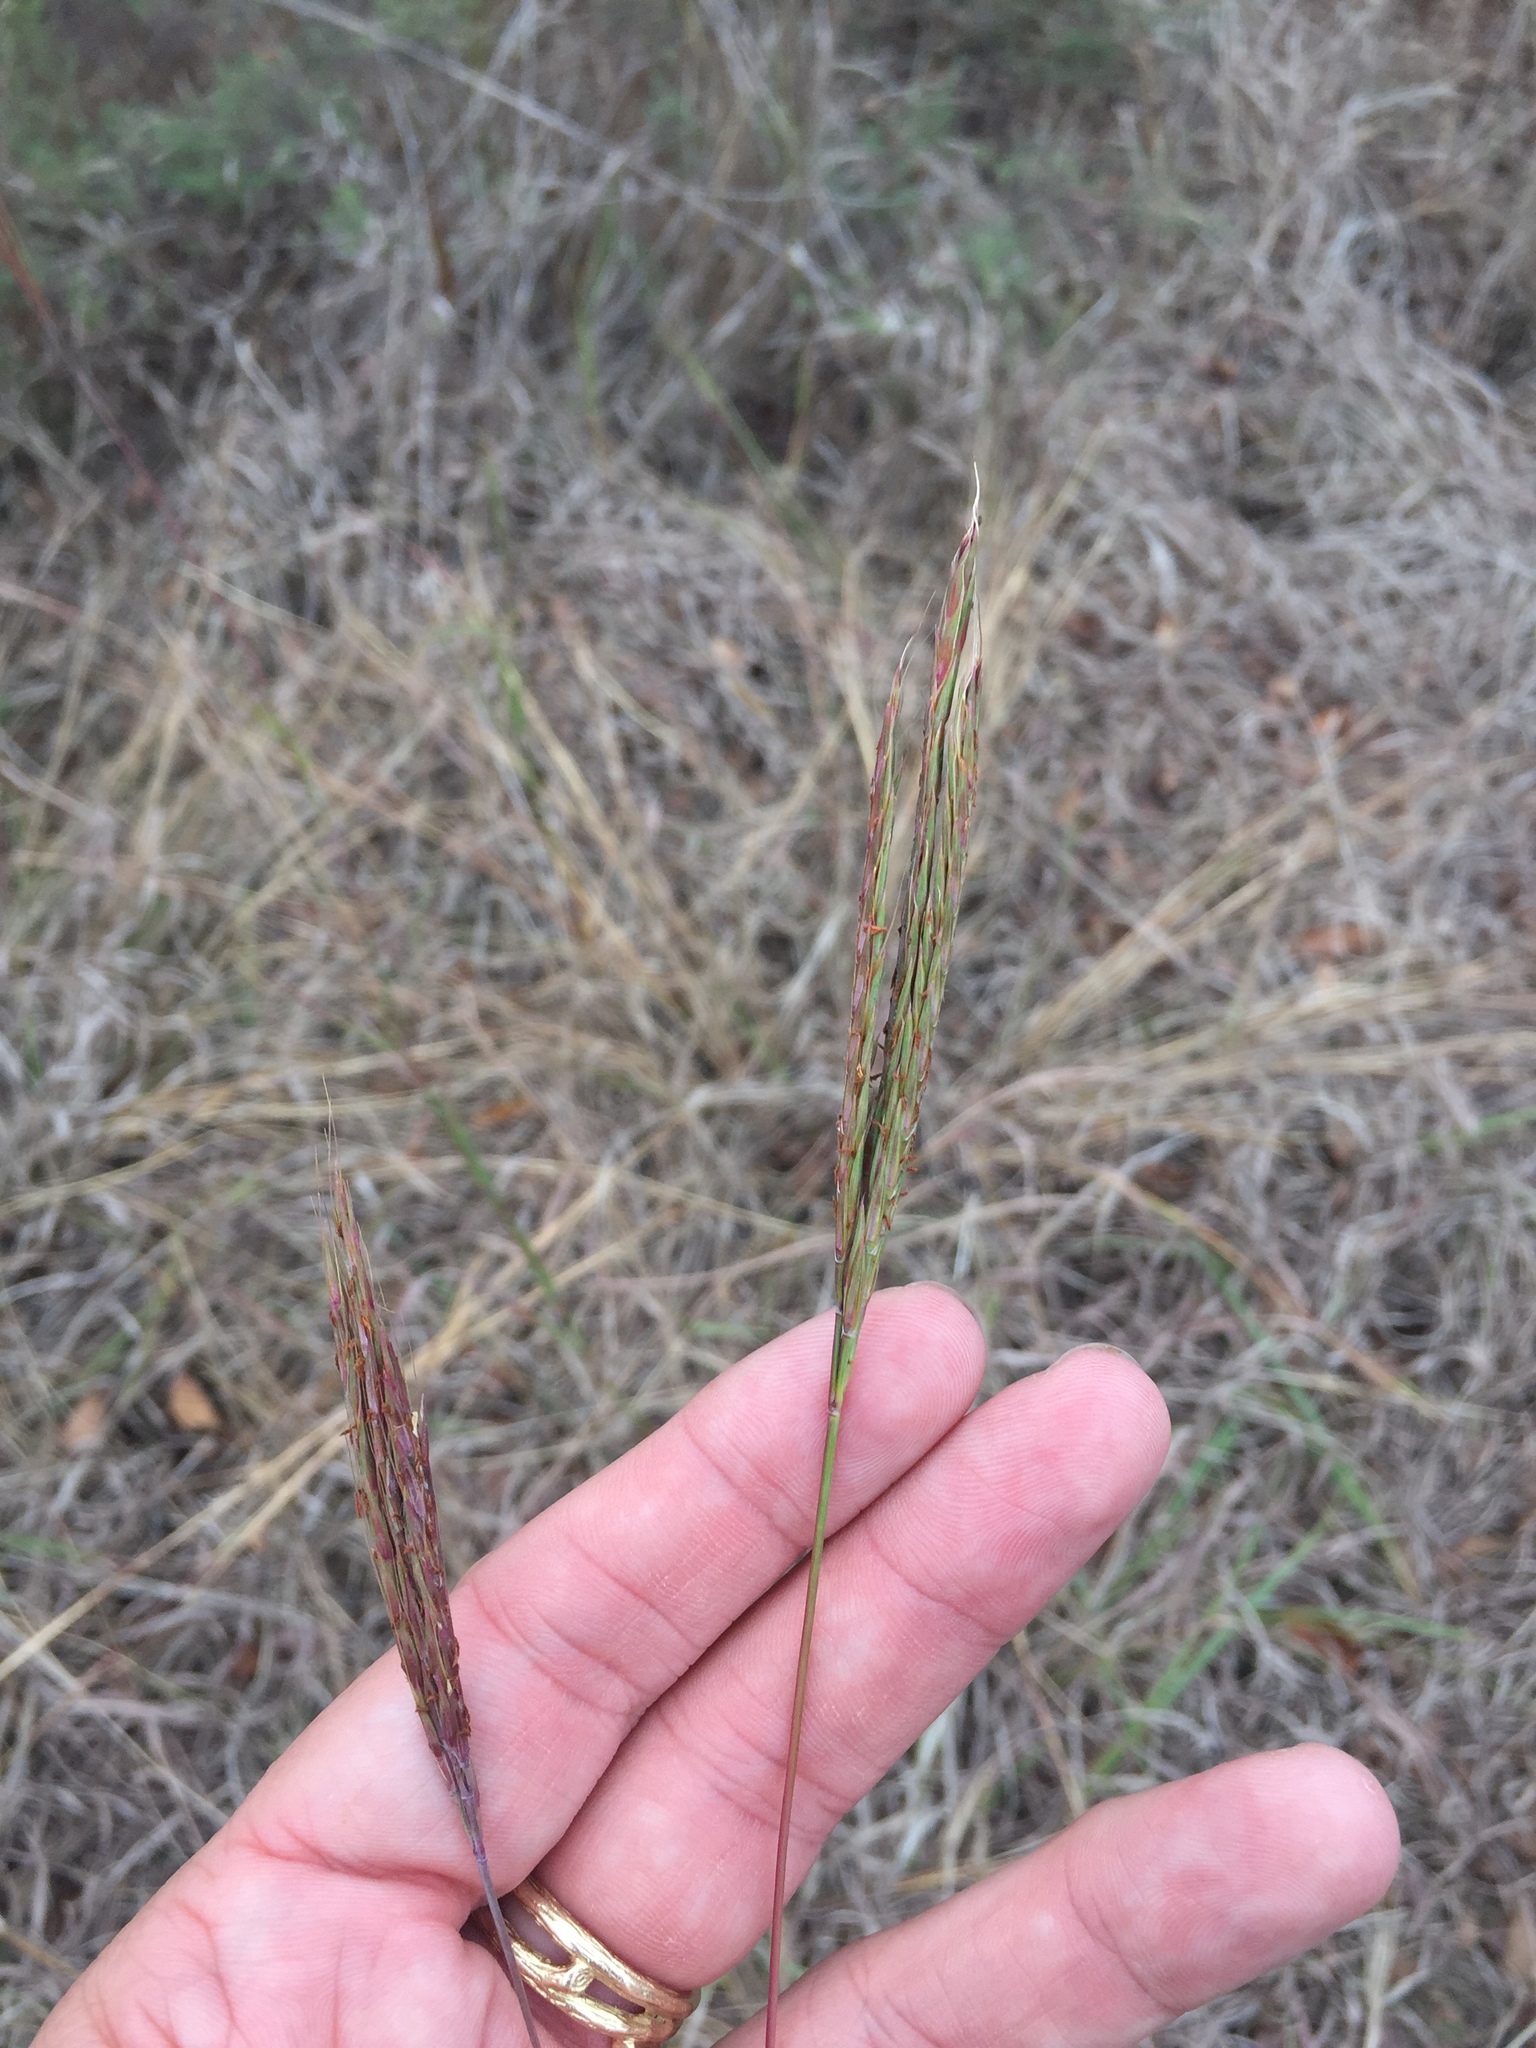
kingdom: Plantae
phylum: Tracheophyta
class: Liliopsida
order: Poales
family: Poaceae
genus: Andropogon
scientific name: Andropogon gerardi
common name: Big bluestem
